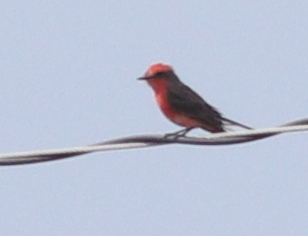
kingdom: Animalia
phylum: Chordata
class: Aves
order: Passeriformes
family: Tyrannidae
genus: Pyrocephalus
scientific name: Pyrocephalus rubinus
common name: Vermilion flycatcher
